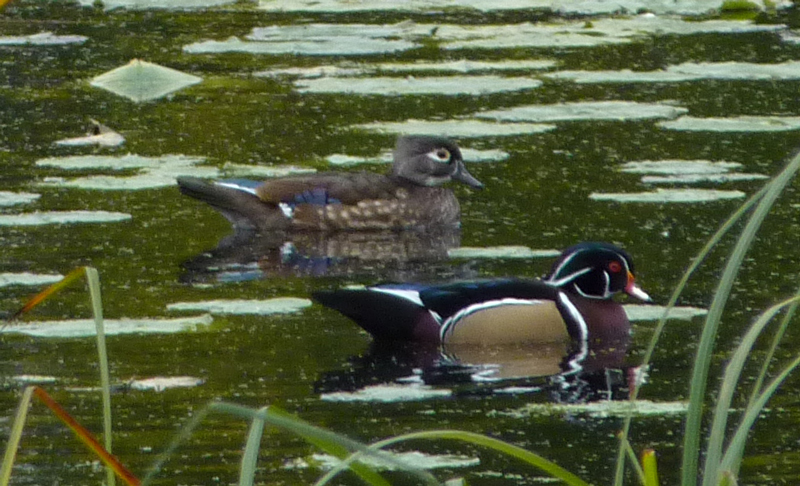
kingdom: Animalia
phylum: Chordata
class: Aves
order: Anseriformes
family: Anatidae
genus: Aix
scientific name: Aix sponsa
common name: Wood duck
